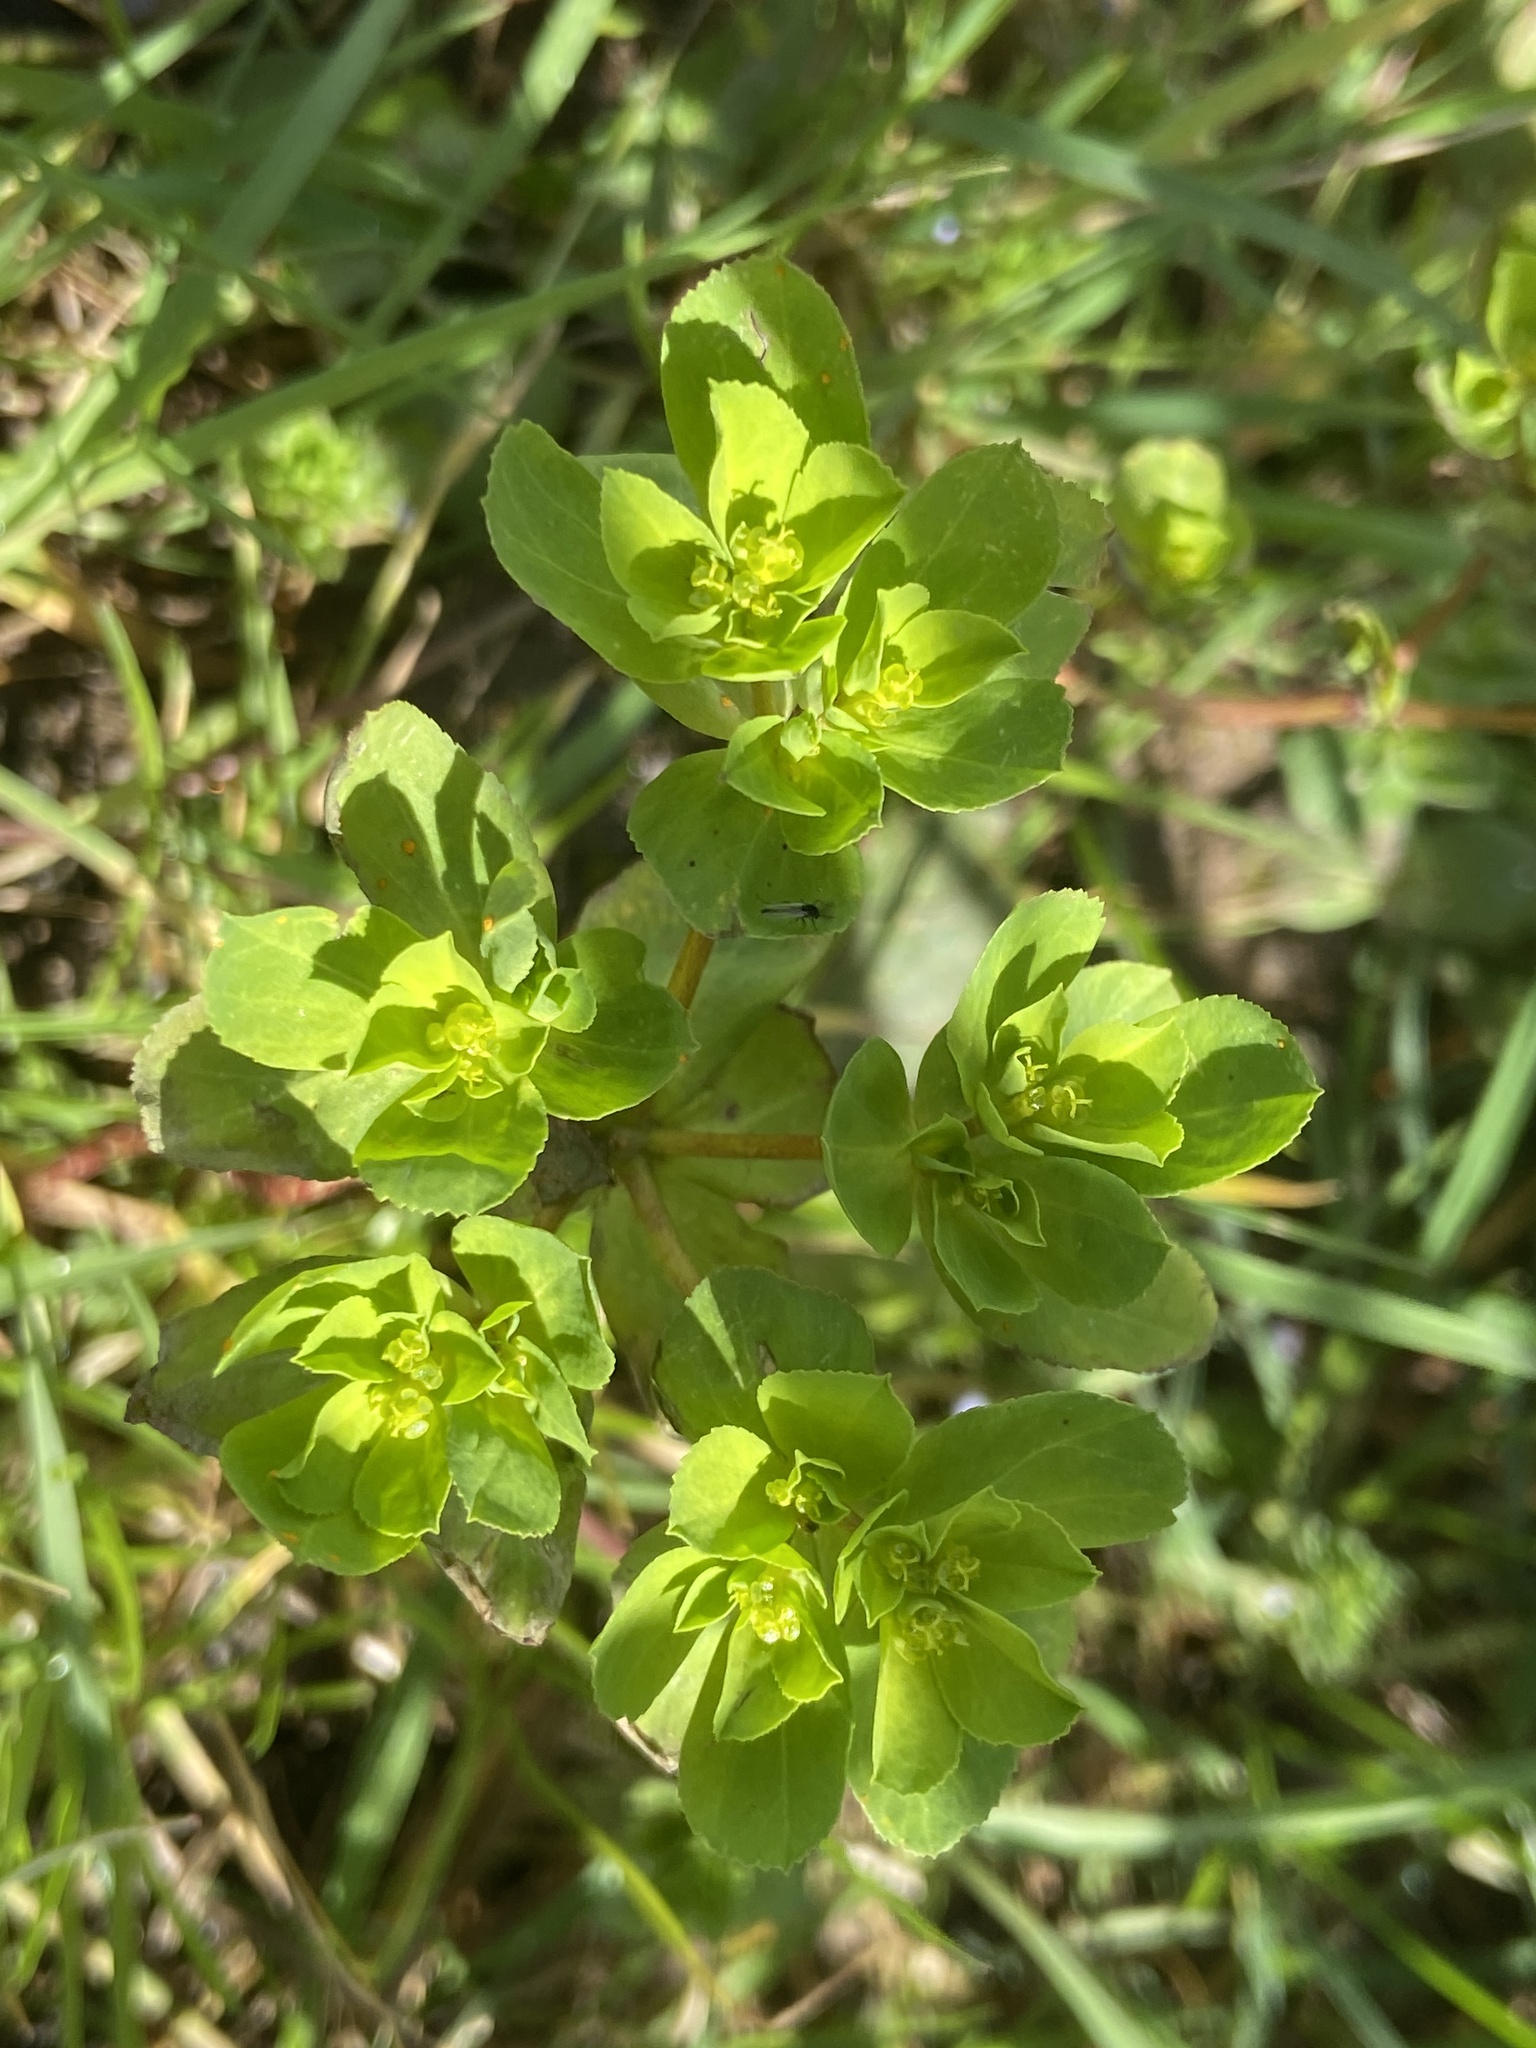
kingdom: Plantae
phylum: Tracheophyta
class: Magnoliopsida
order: Malpighiales
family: Euphorbiaceae
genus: Euphorbia
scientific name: Euphorbia helioscopia
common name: Sun spurge
